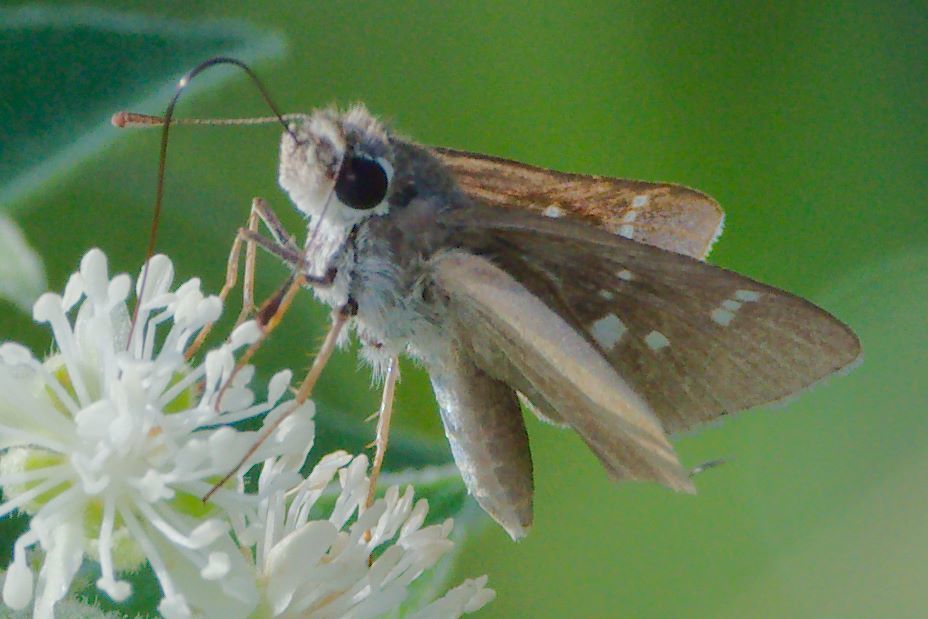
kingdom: Animalia
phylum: Arthropoda
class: Insecta
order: Lepidoptera
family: Hesperiidae
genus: Lerodea
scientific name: Lerodea eufala
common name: Eufala skipper
